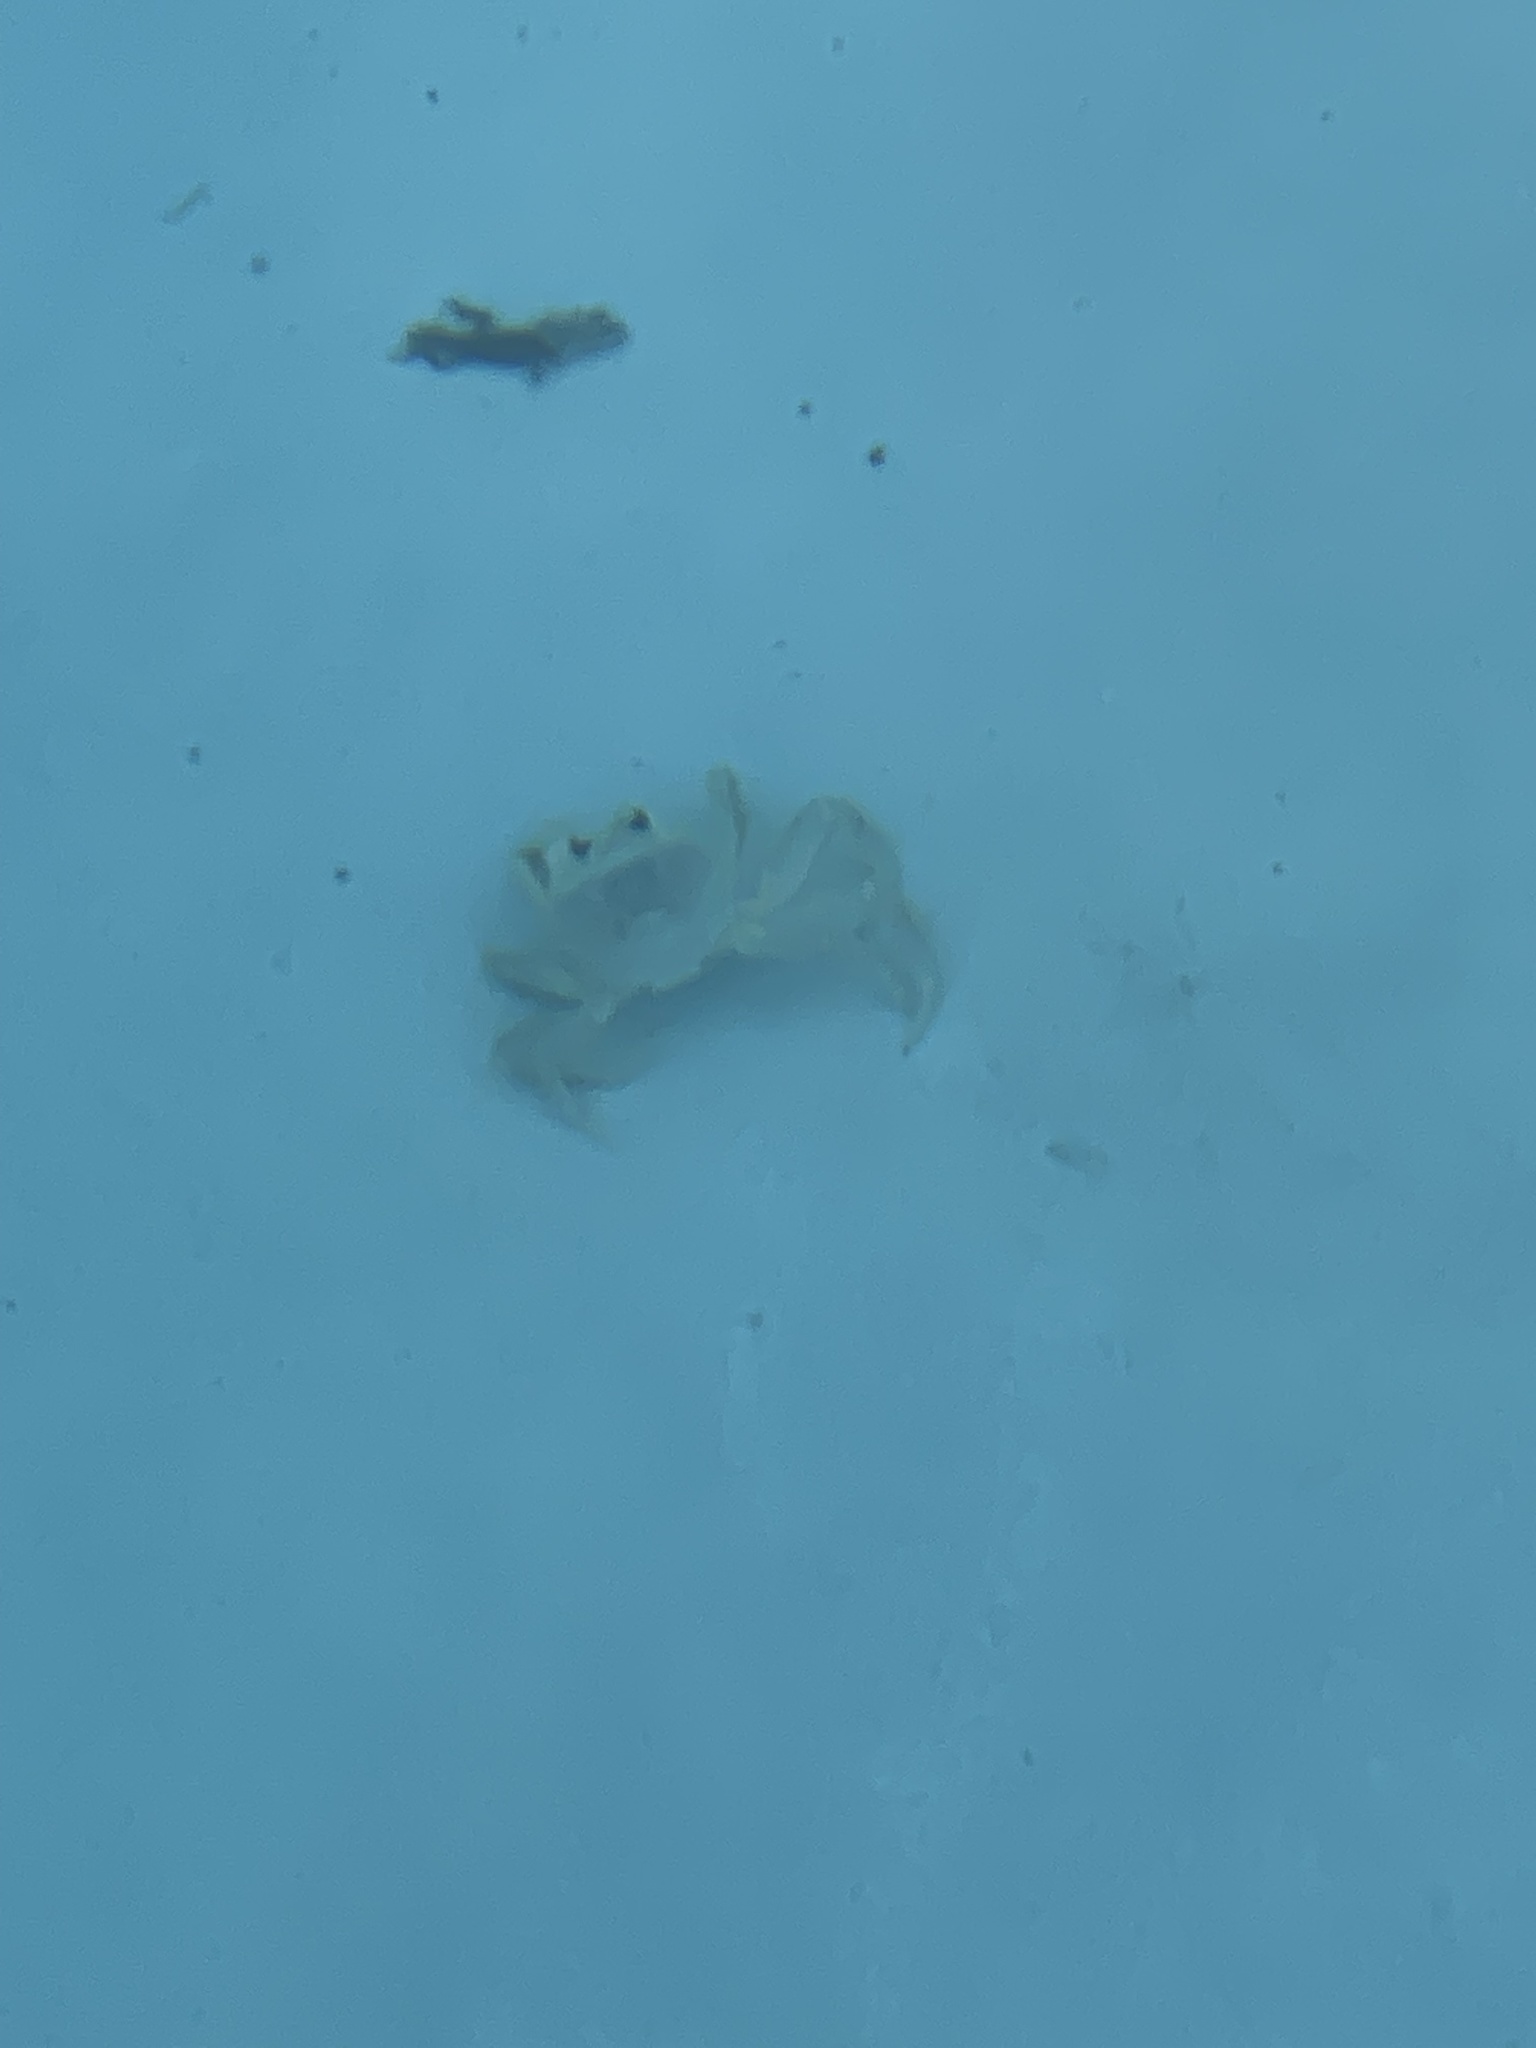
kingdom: Animalia
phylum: Arthropoda
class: Malacostraca
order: Decapoda
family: Ocypodidae
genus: Ocypode
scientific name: Ocypode quadrata
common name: Ghost crab
